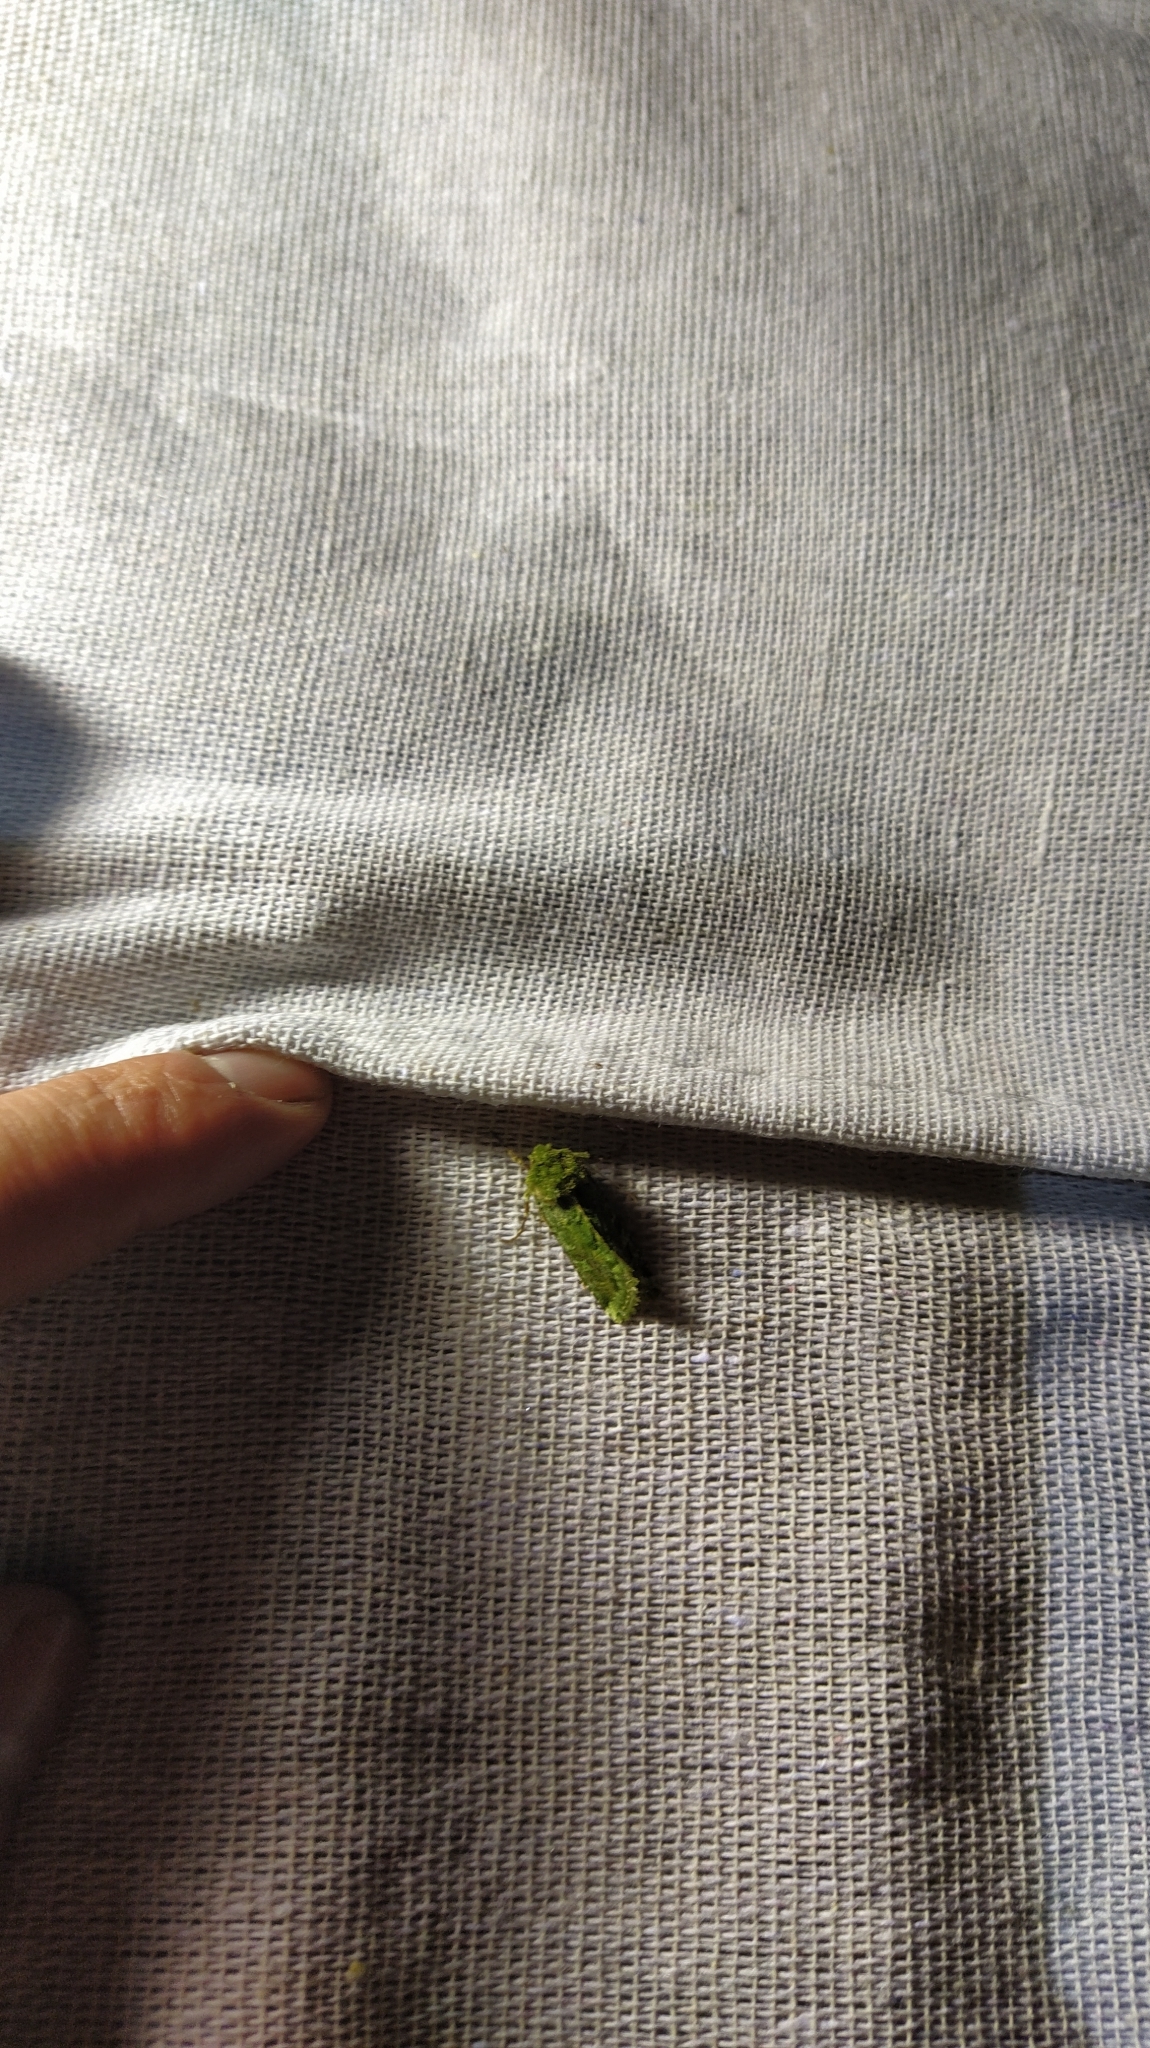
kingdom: Animalia
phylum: Arthropoda
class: Insecta
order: Lepidoptera
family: Noctuidae
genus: Feredayia
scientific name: Feredayia grammosa
